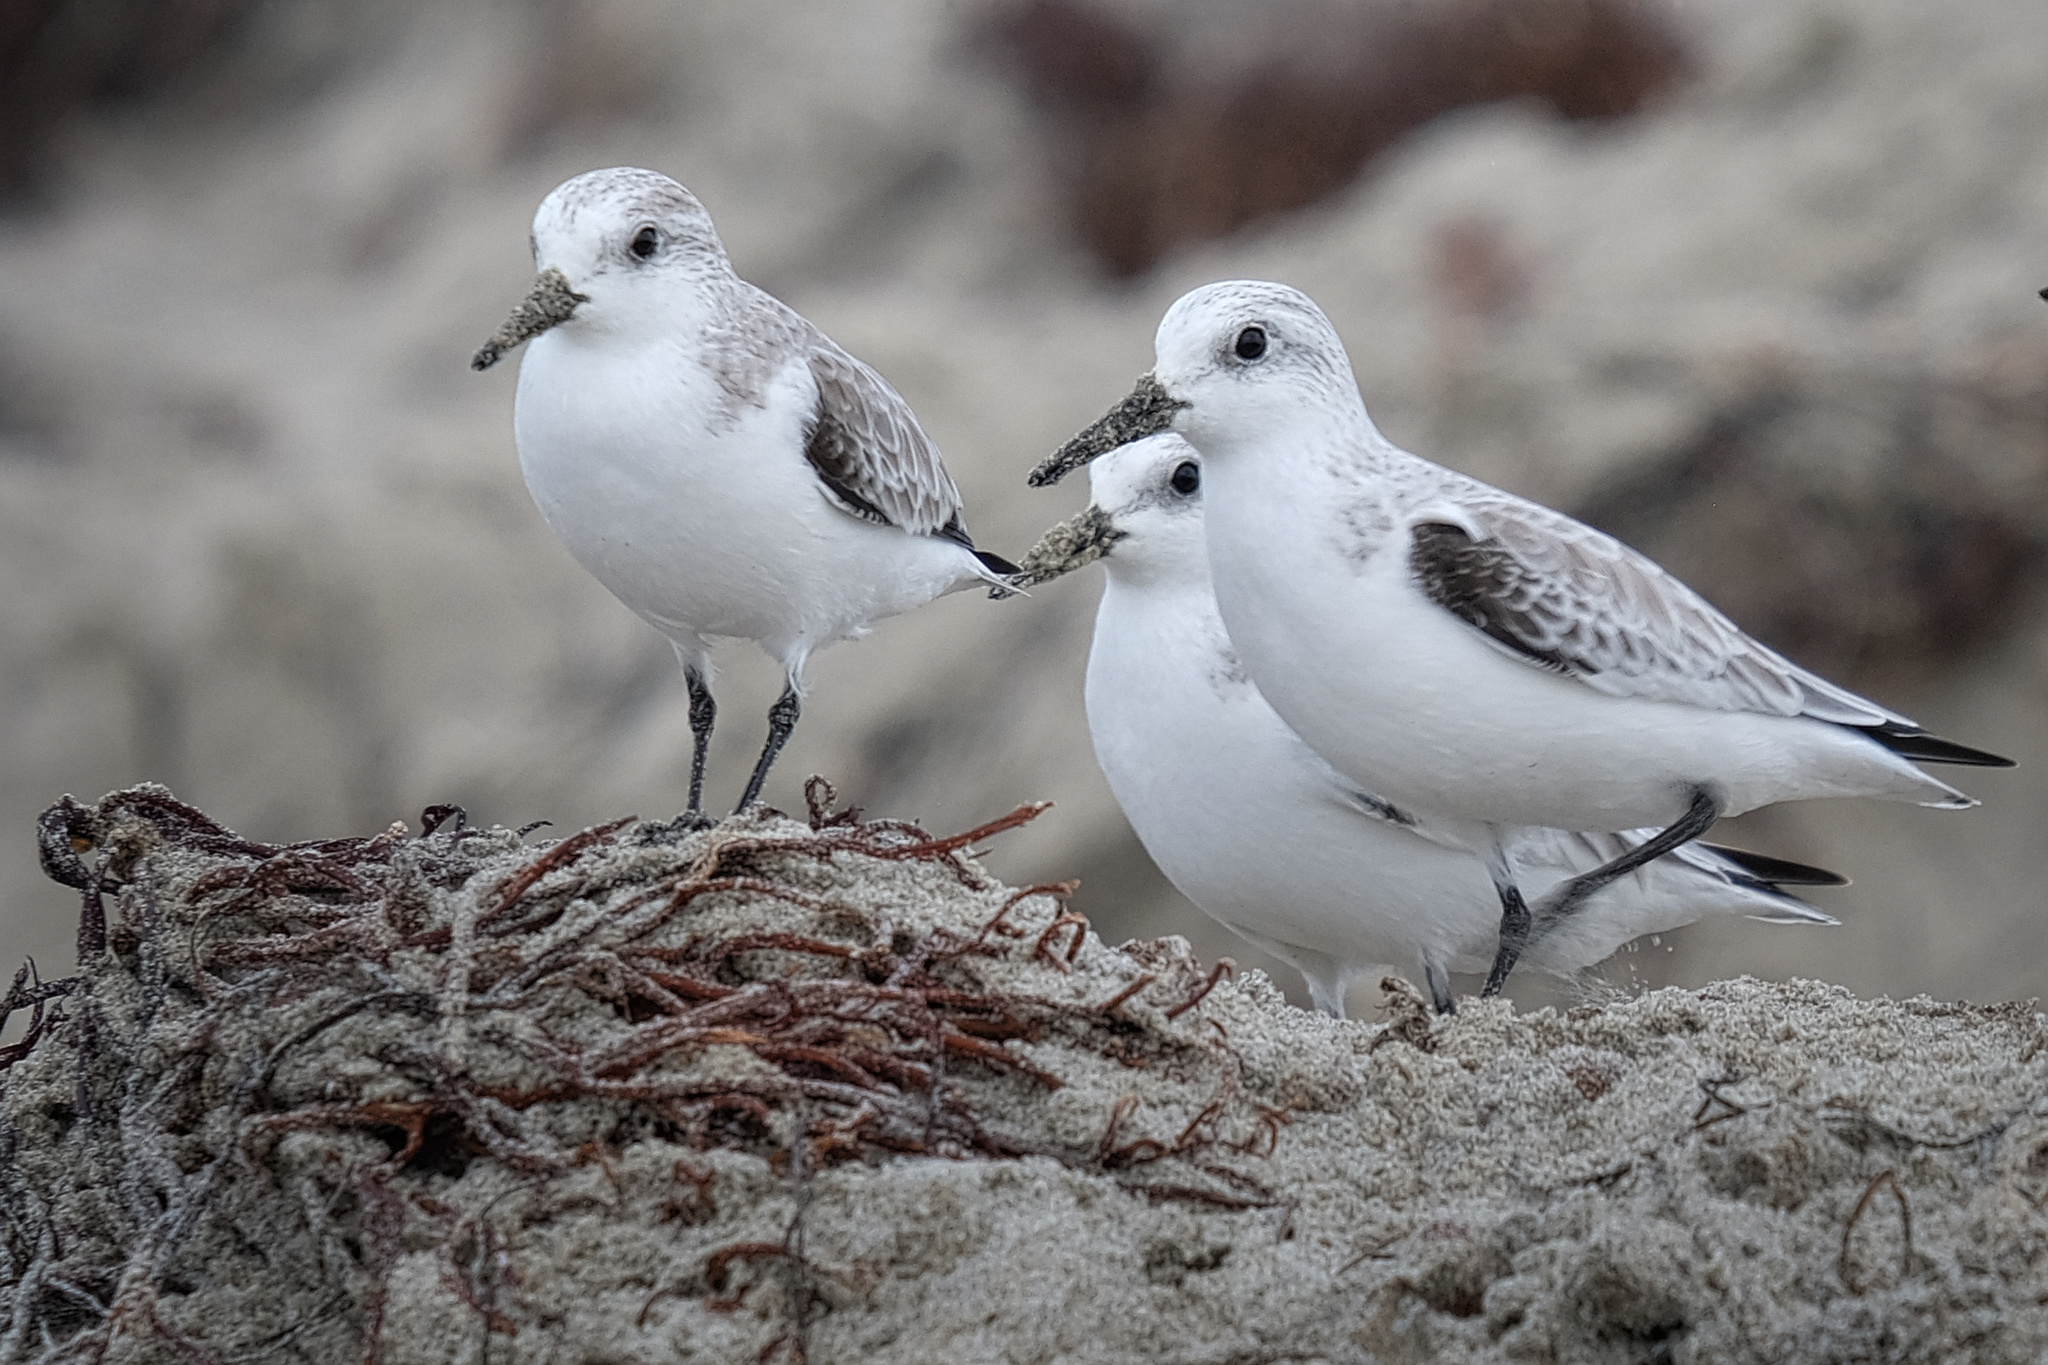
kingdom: Animalia
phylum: Chordata
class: Aves
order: Charadriiformes
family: Scolopacidae
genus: Calidris
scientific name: Calidris alba
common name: Sanderling
